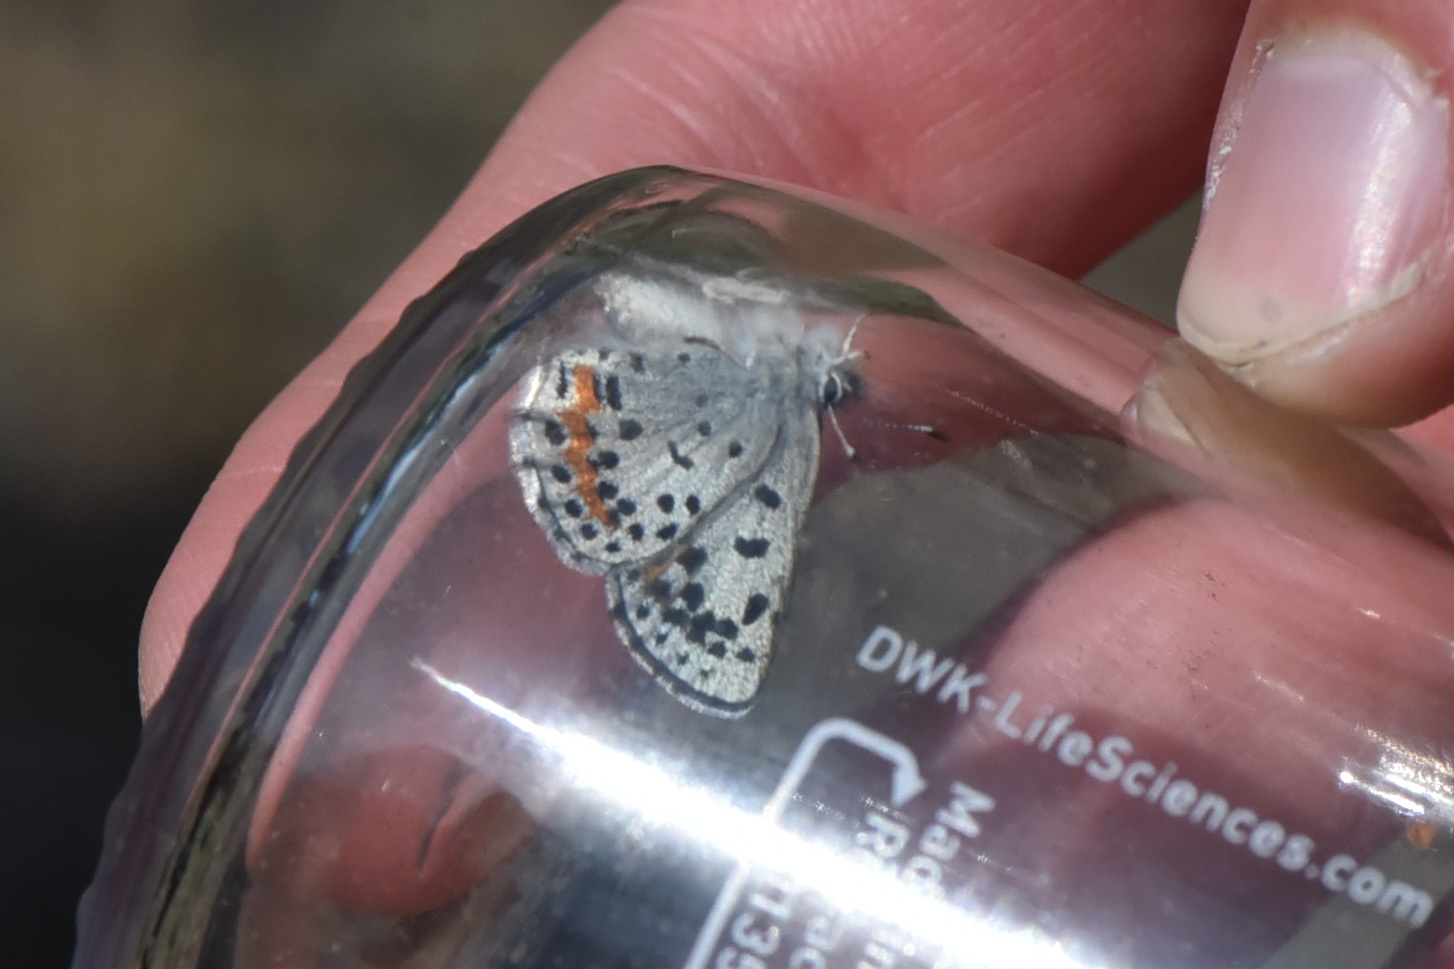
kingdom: Animalia
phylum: Arthropoda
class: Insecta
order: Lepidoptera
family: Lycaenidae
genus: Euphilotes
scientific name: Euphilotes
